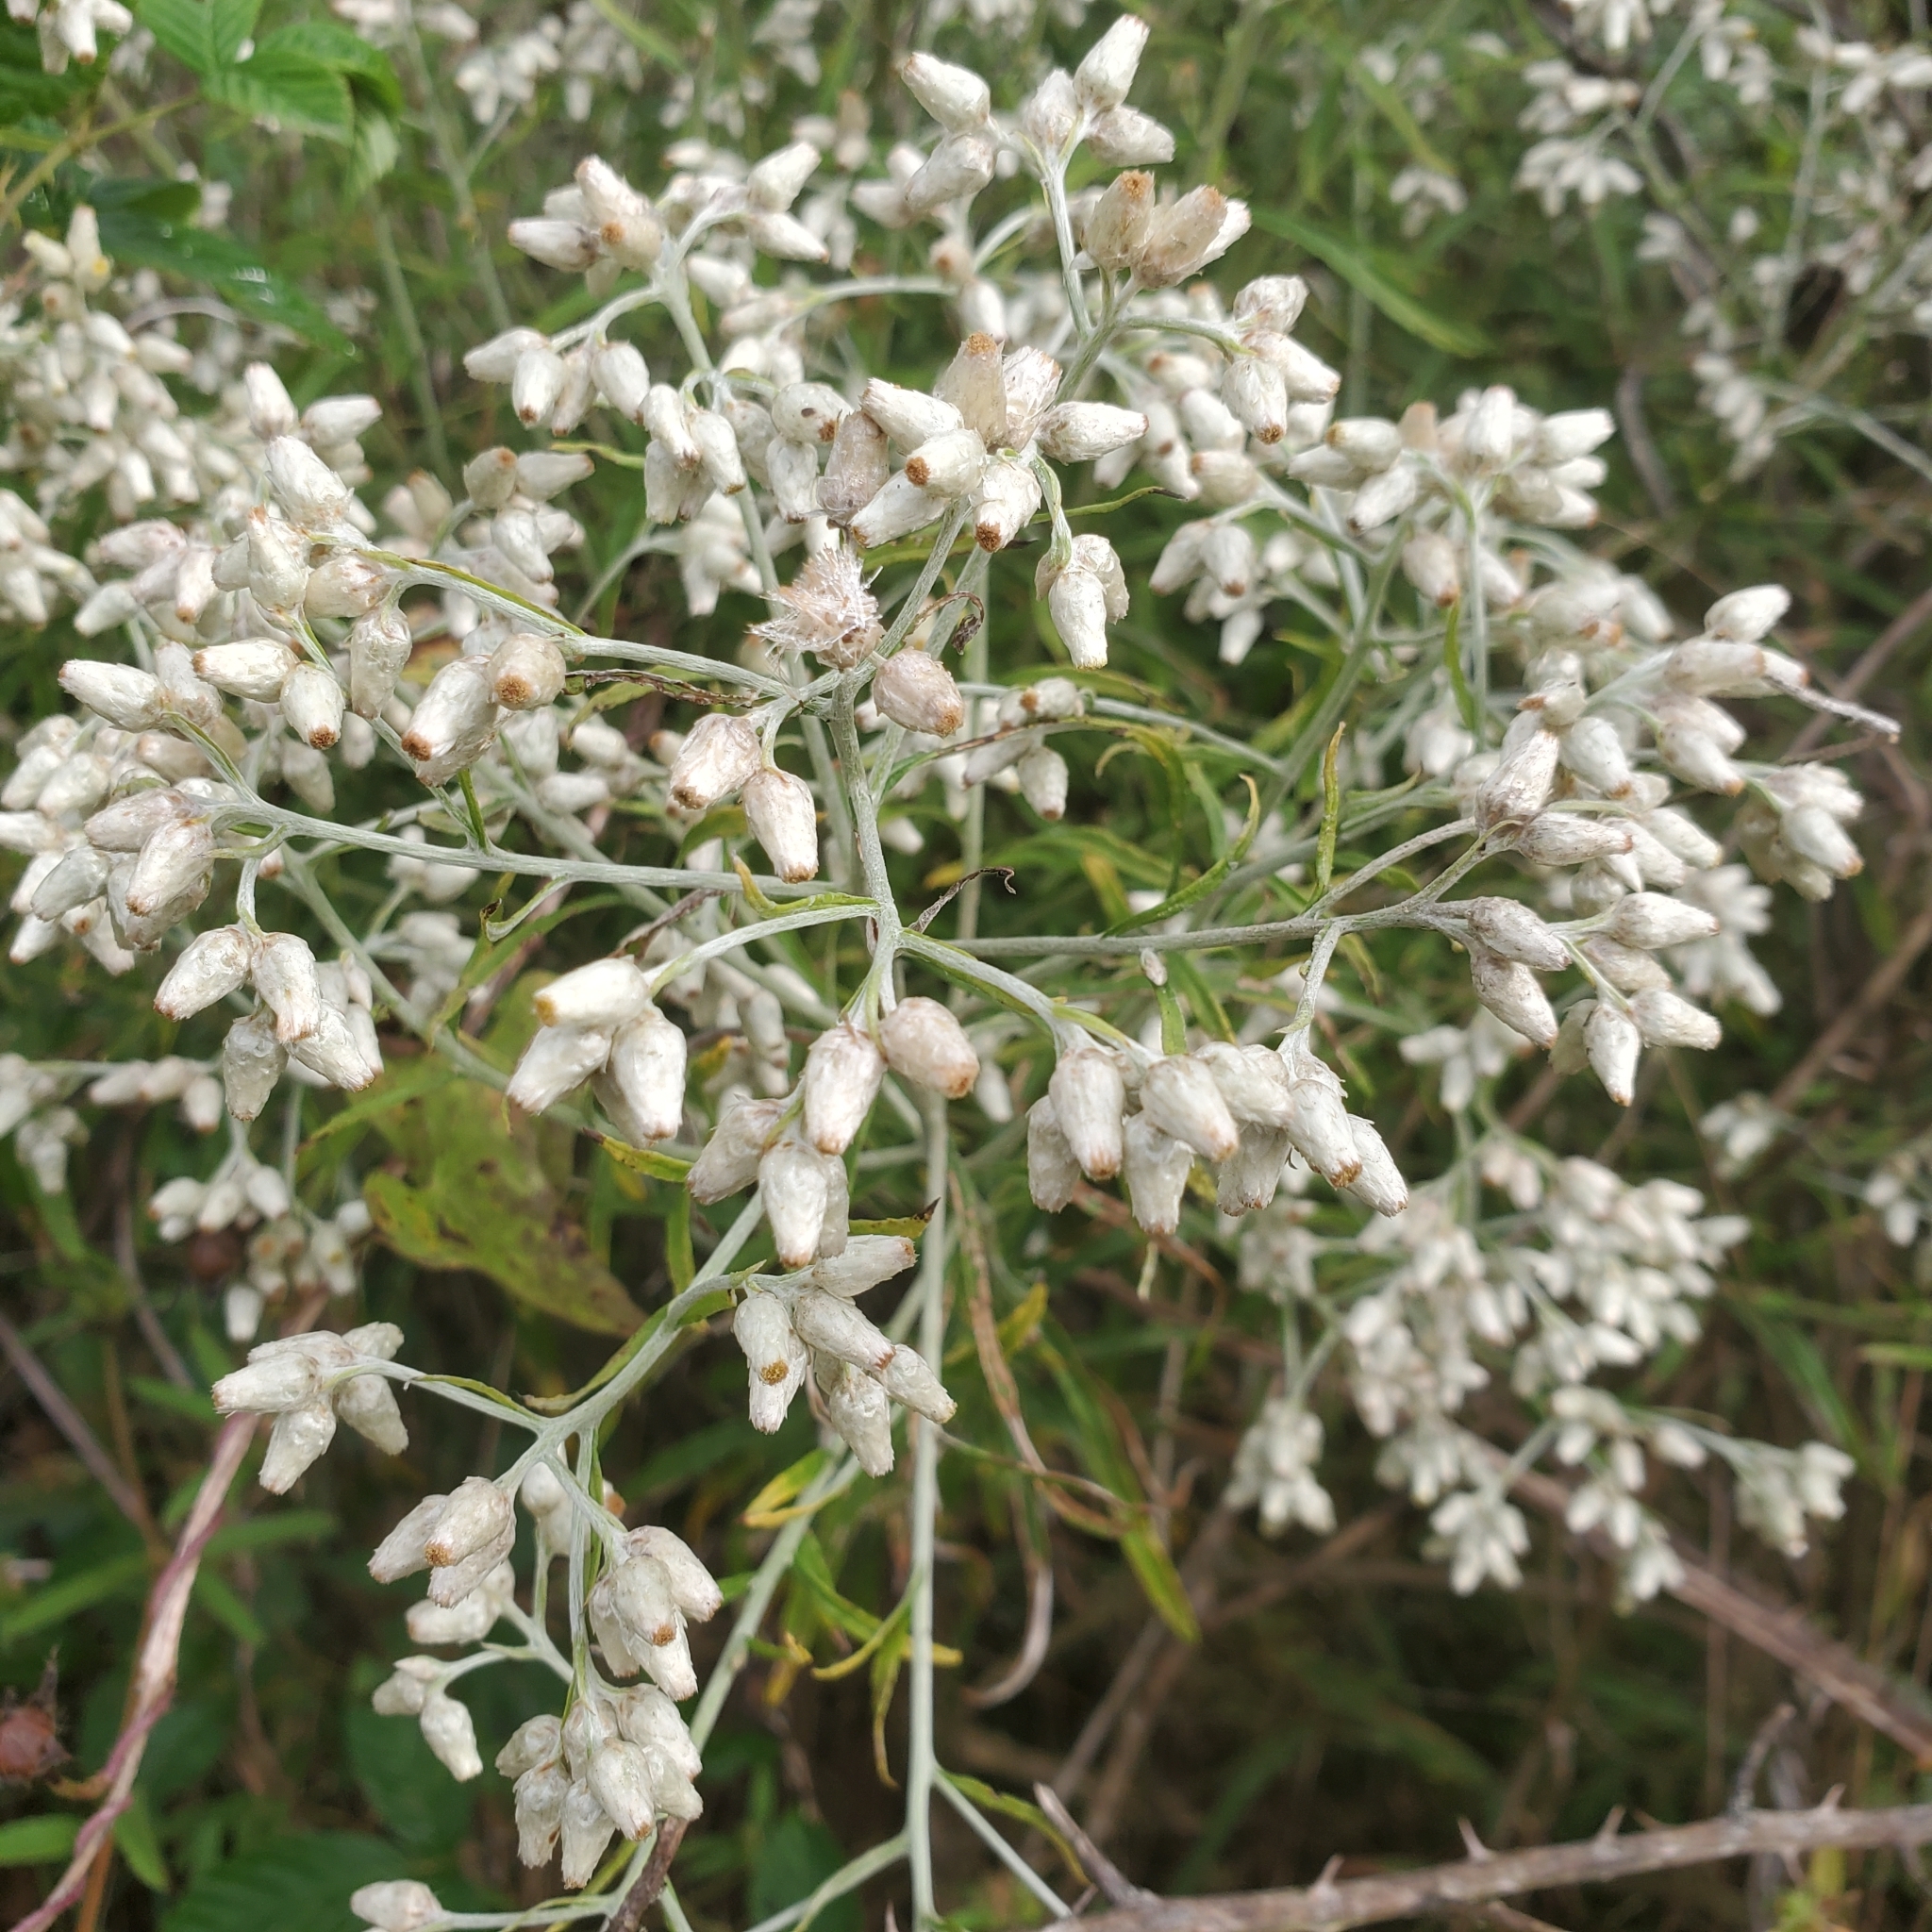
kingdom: Plantae
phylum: Tracheophyta
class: Magnoliopsida
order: Asterales
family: Asteraceae
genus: Pseudognaphalium
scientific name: Pseudognaphalium obtusifolium
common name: Eastern rabbit-tobacco
